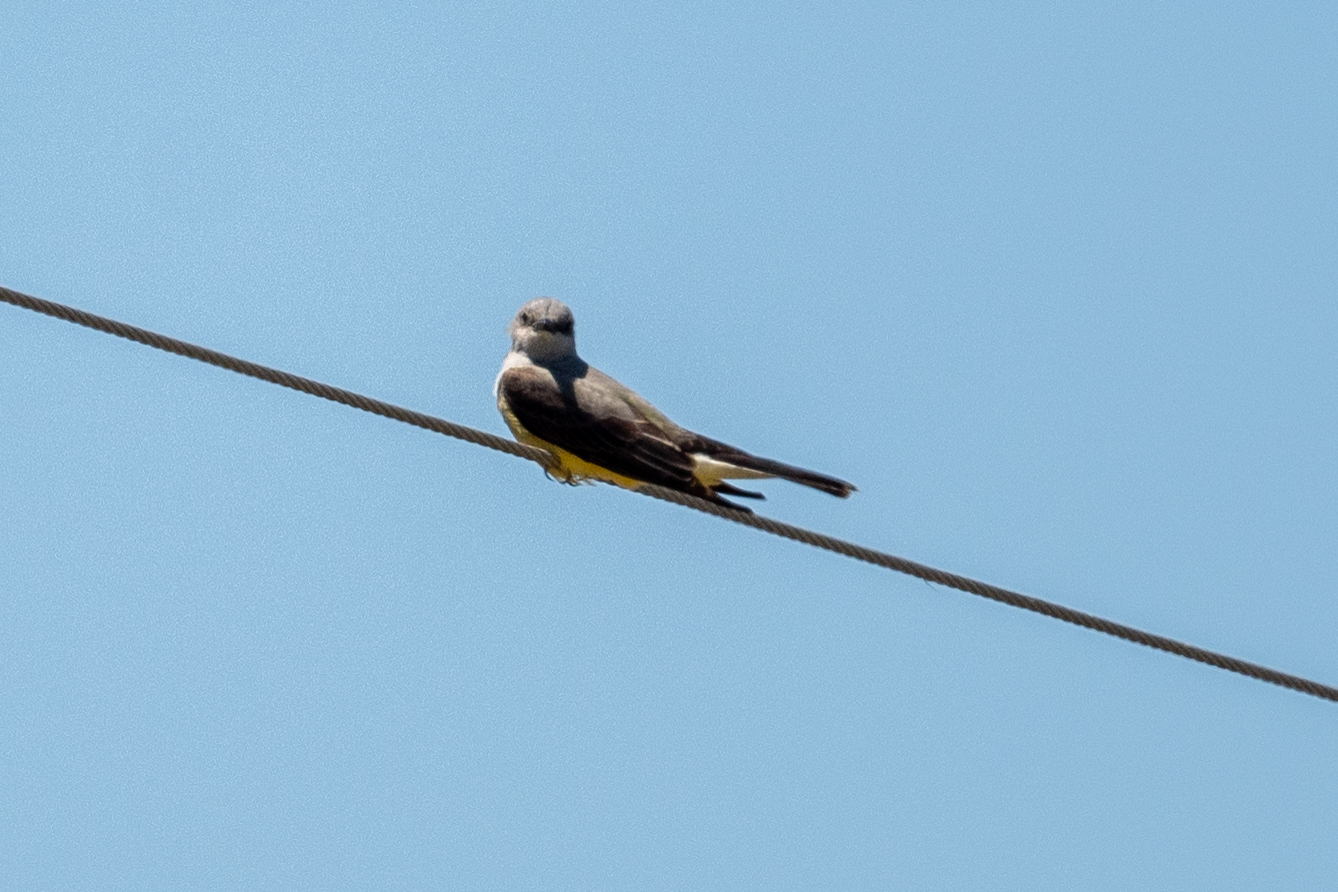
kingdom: Animalia
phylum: Chordata
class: Aves
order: Passeriformes
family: Tyrannidae
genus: Tyrannus
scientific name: Tyrannus verticalis
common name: Western kingbird
